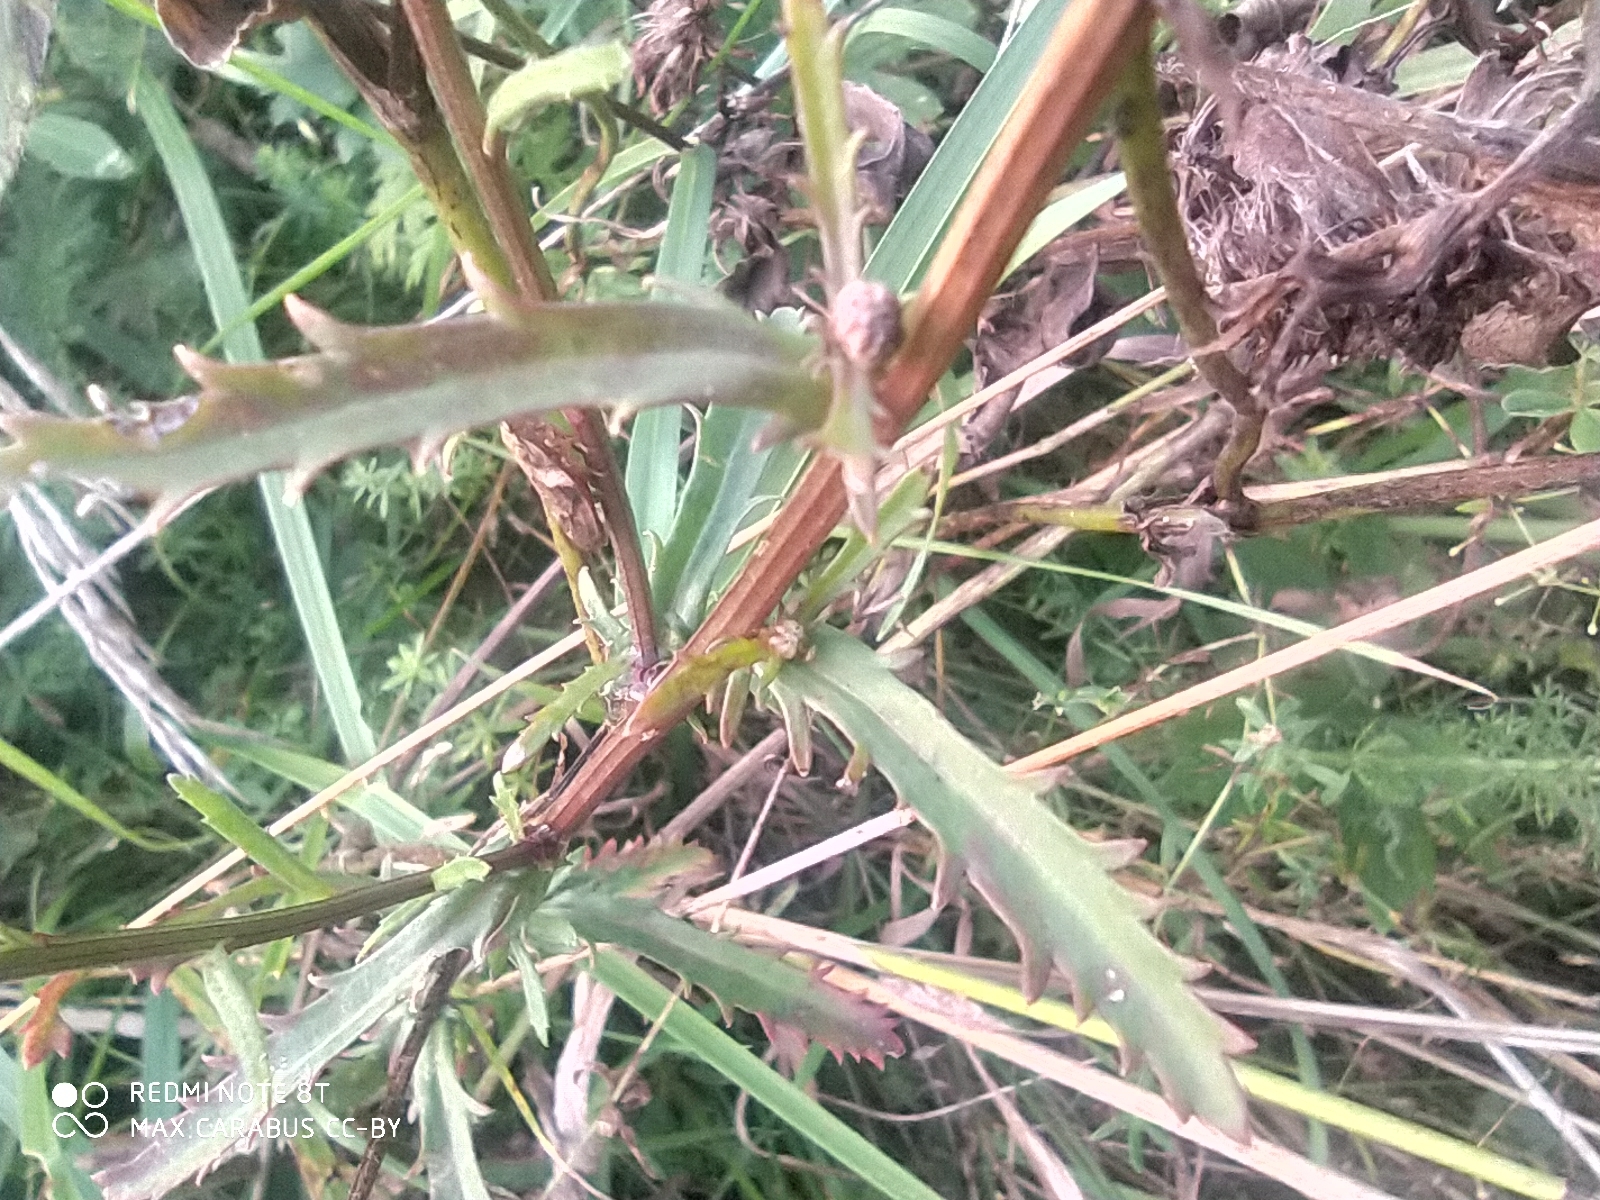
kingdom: Plantae
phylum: Tracheophyta
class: Magnoliopsida
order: Asterales
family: Asteraceae
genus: Leucanthemum
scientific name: Leucanthemum vulgare
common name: Oxeye daisy
